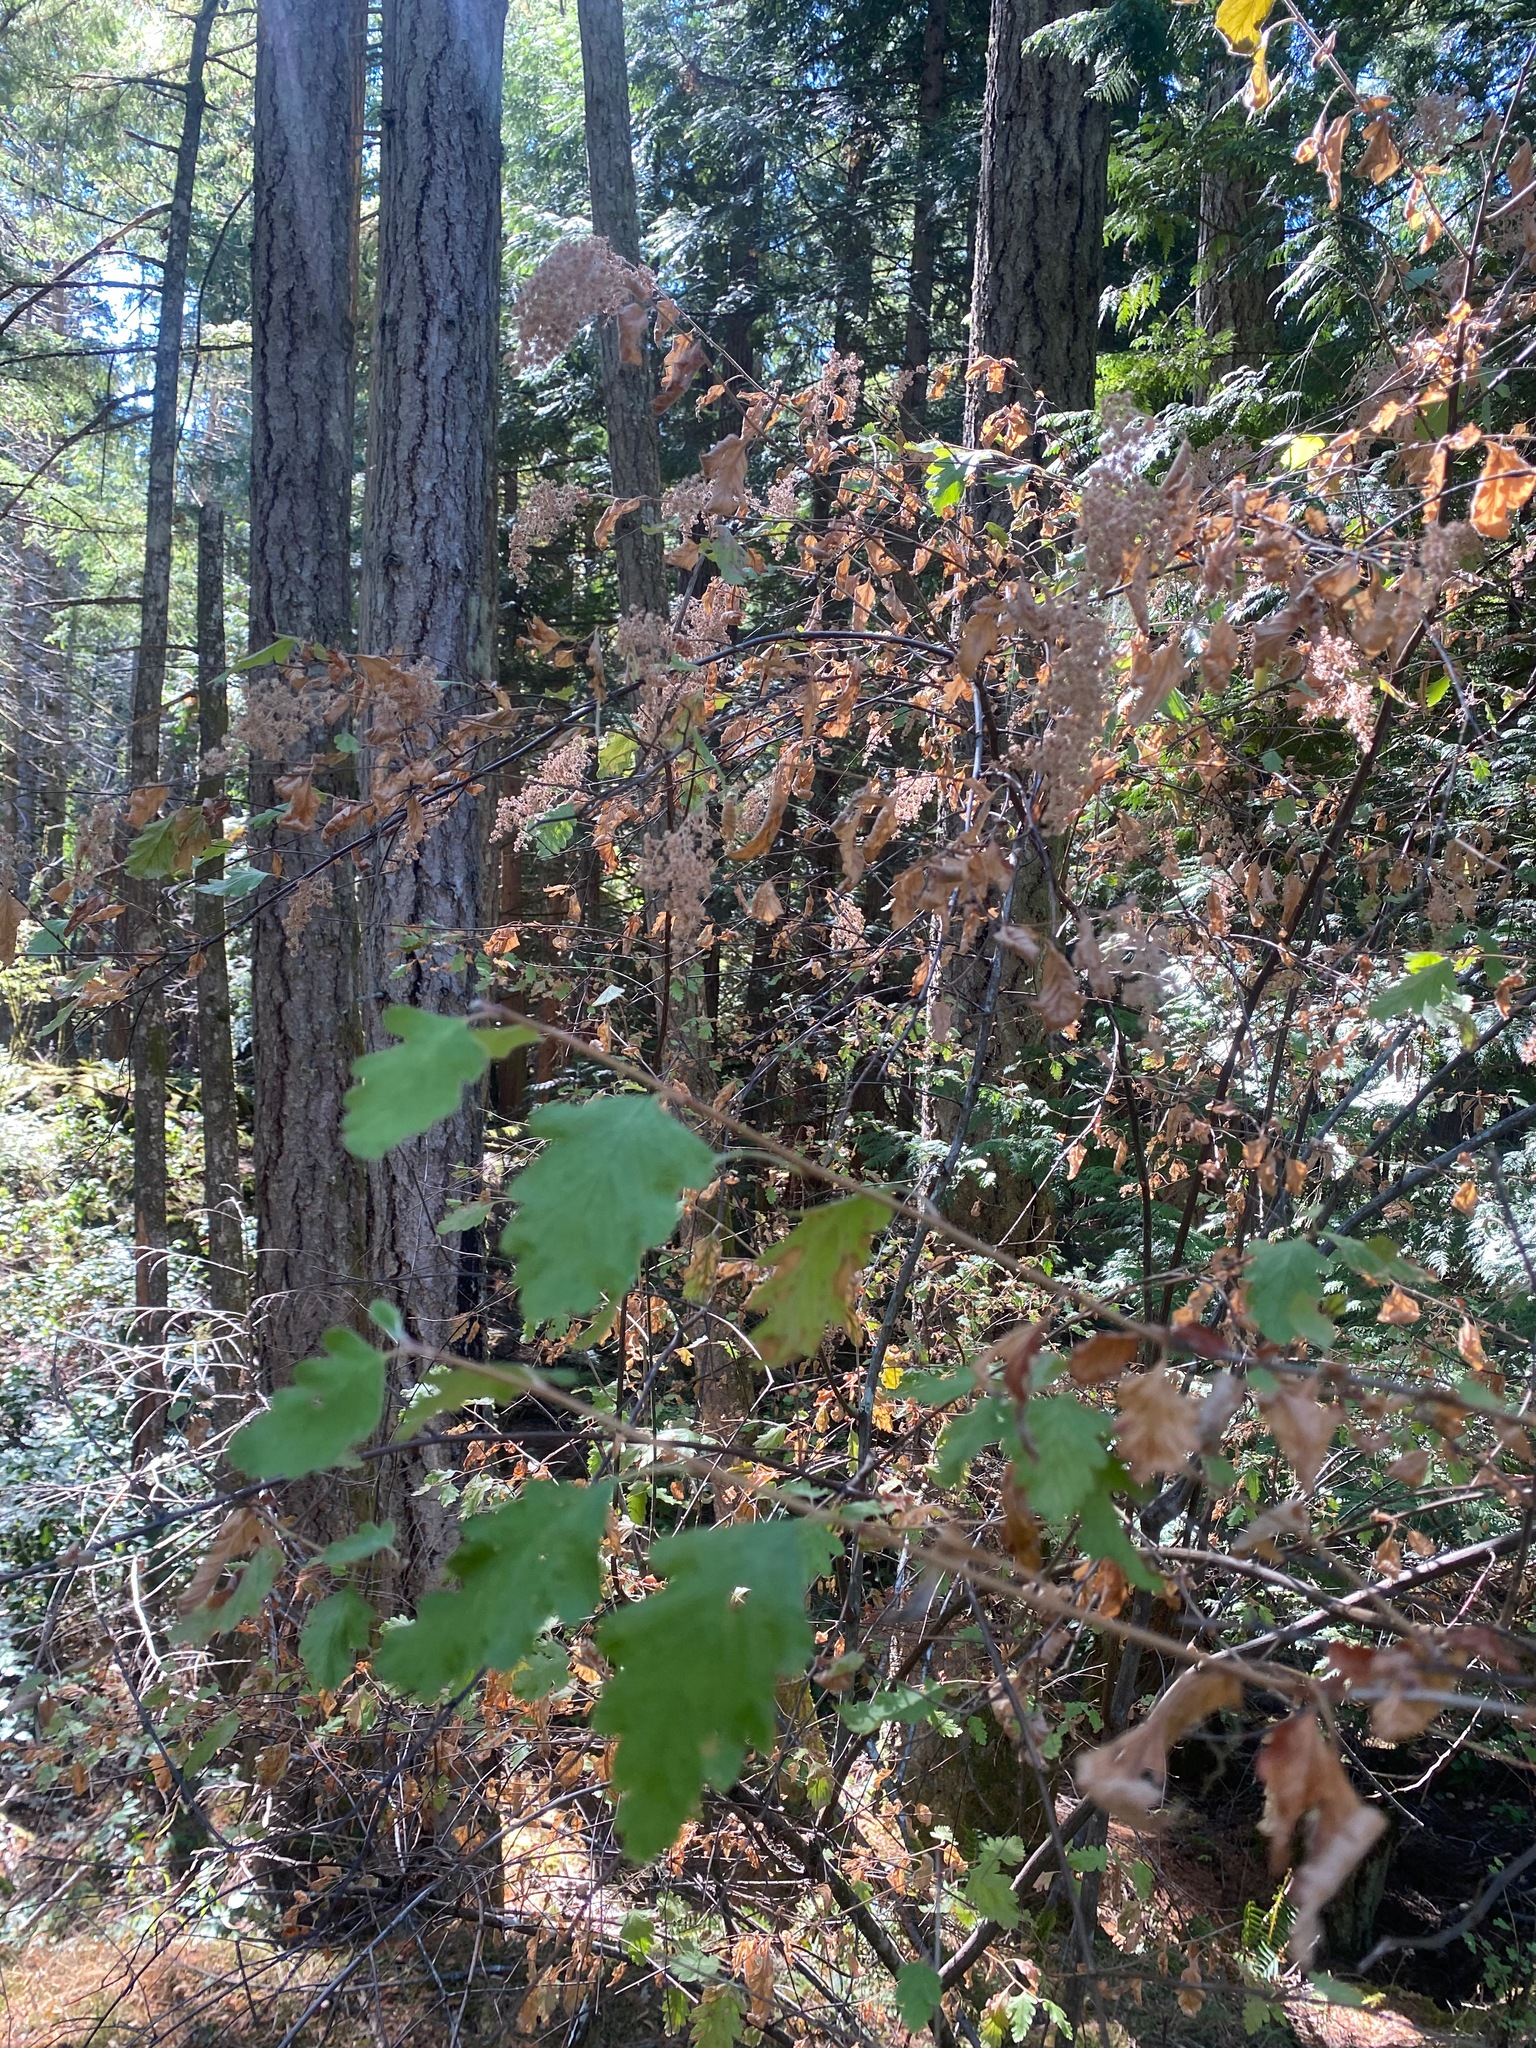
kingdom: Plantae
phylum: Tracheophyta
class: Magnoliopsida
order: Rosales
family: Rosaceae
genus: Holodiscus
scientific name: Holodiscus discolor
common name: Oceanspray
